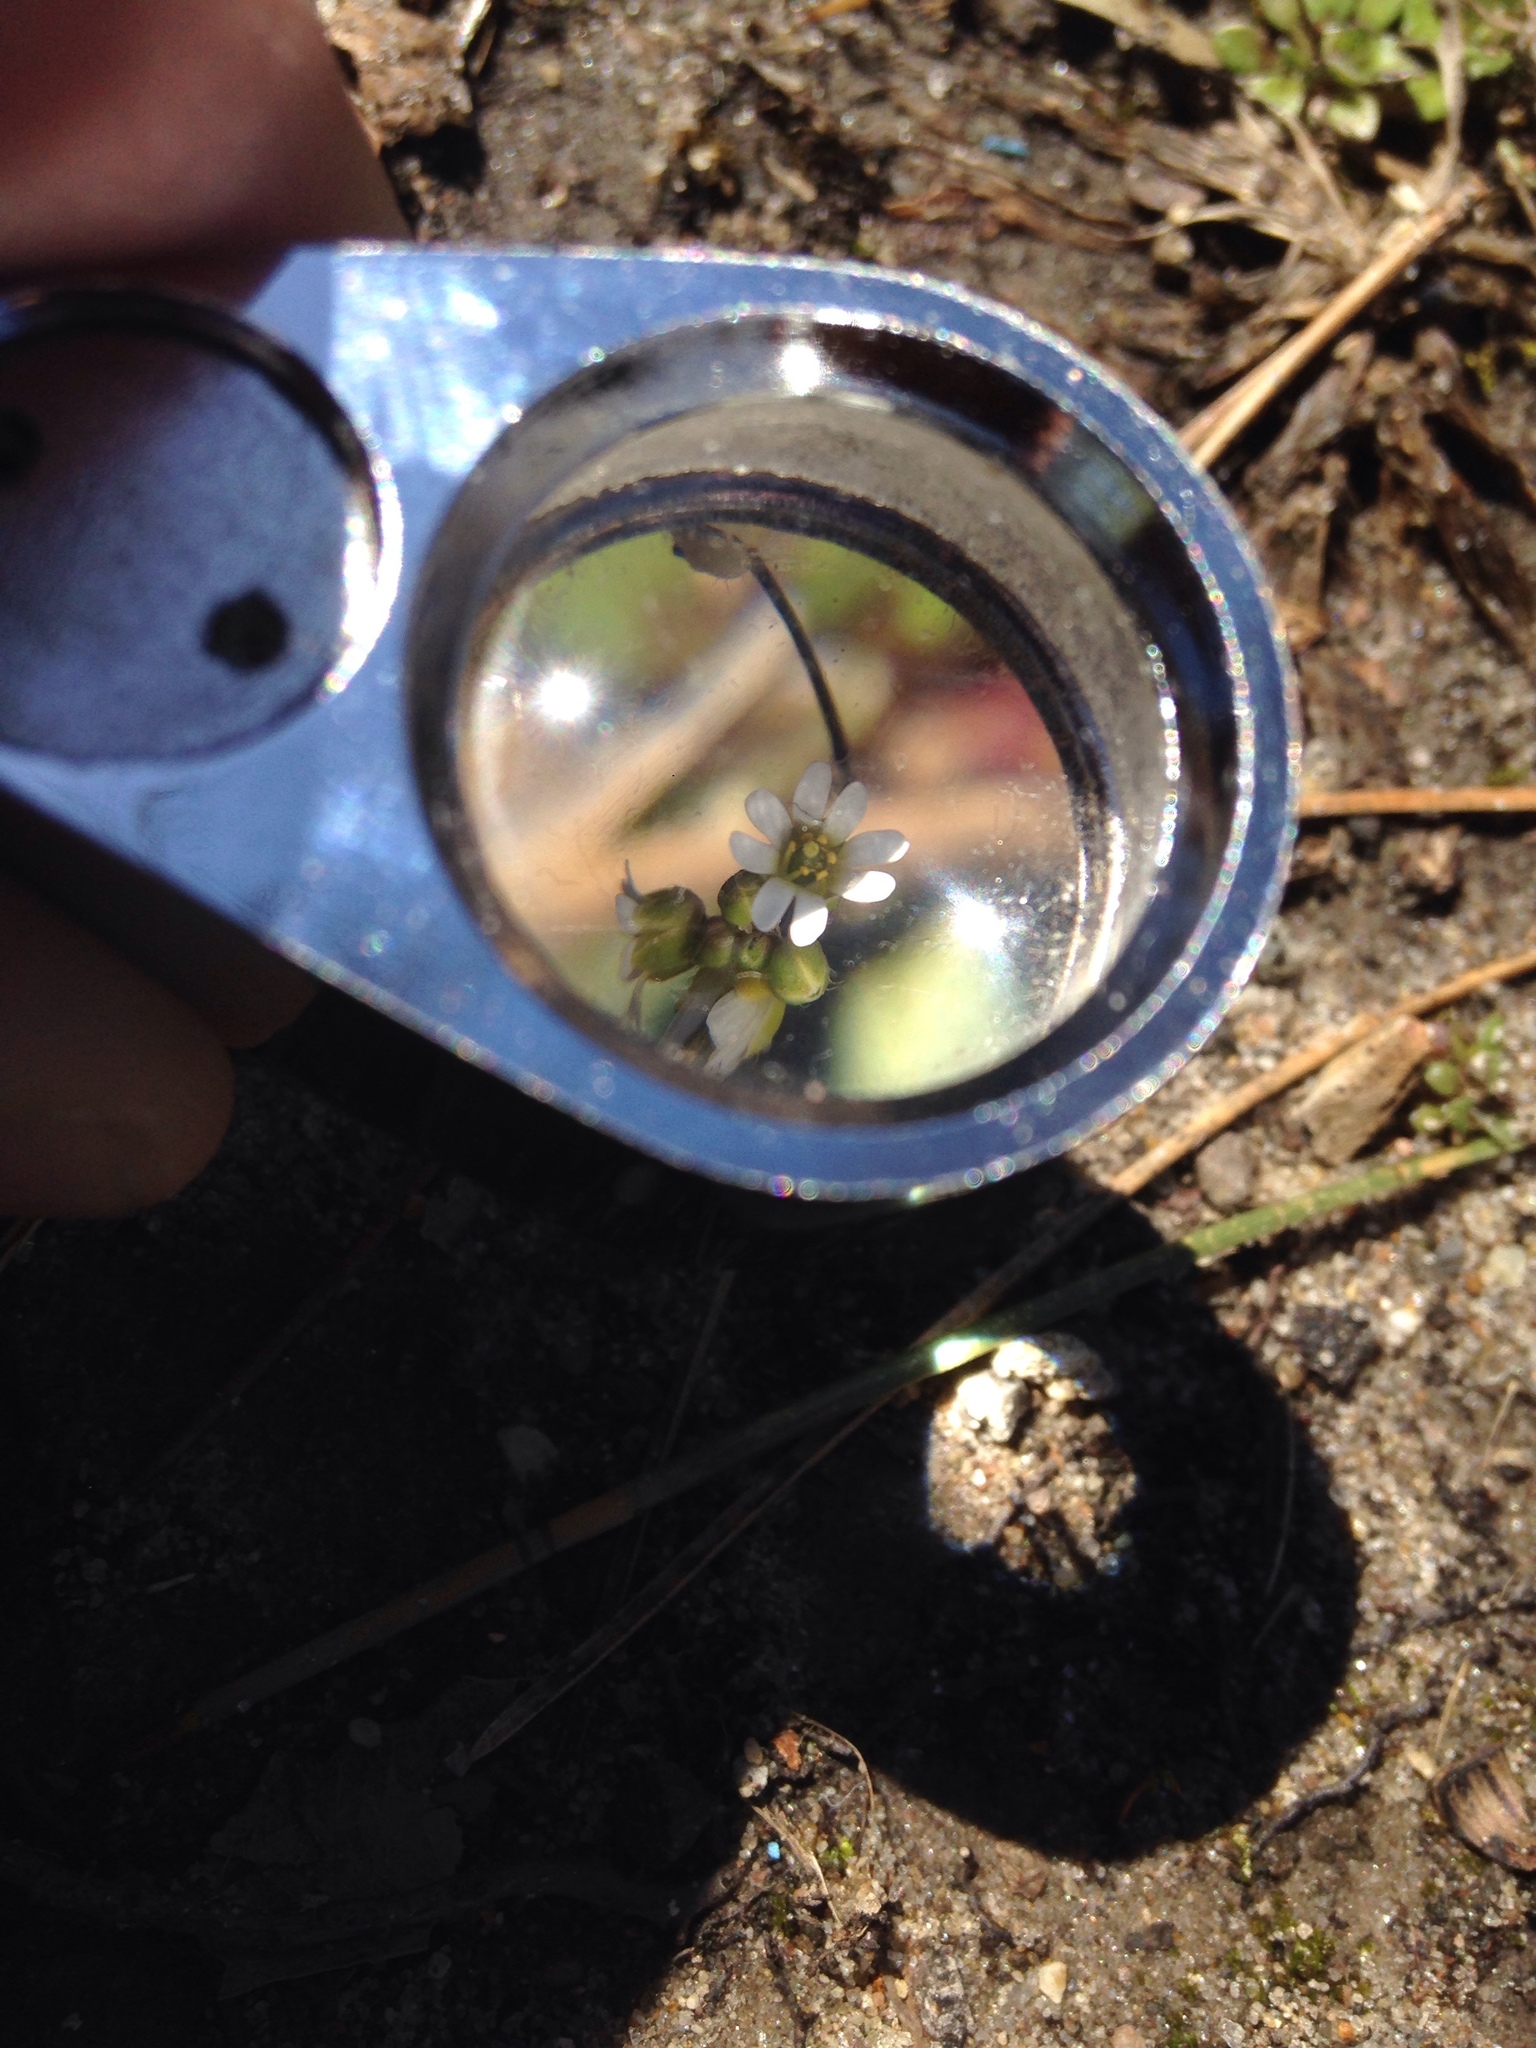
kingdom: Plantae
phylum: Tracheophyta
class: Magnoliopsida
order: Brassicales
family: Brassicaceae
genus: Draba
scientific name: Draba verna
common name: Spring draba
